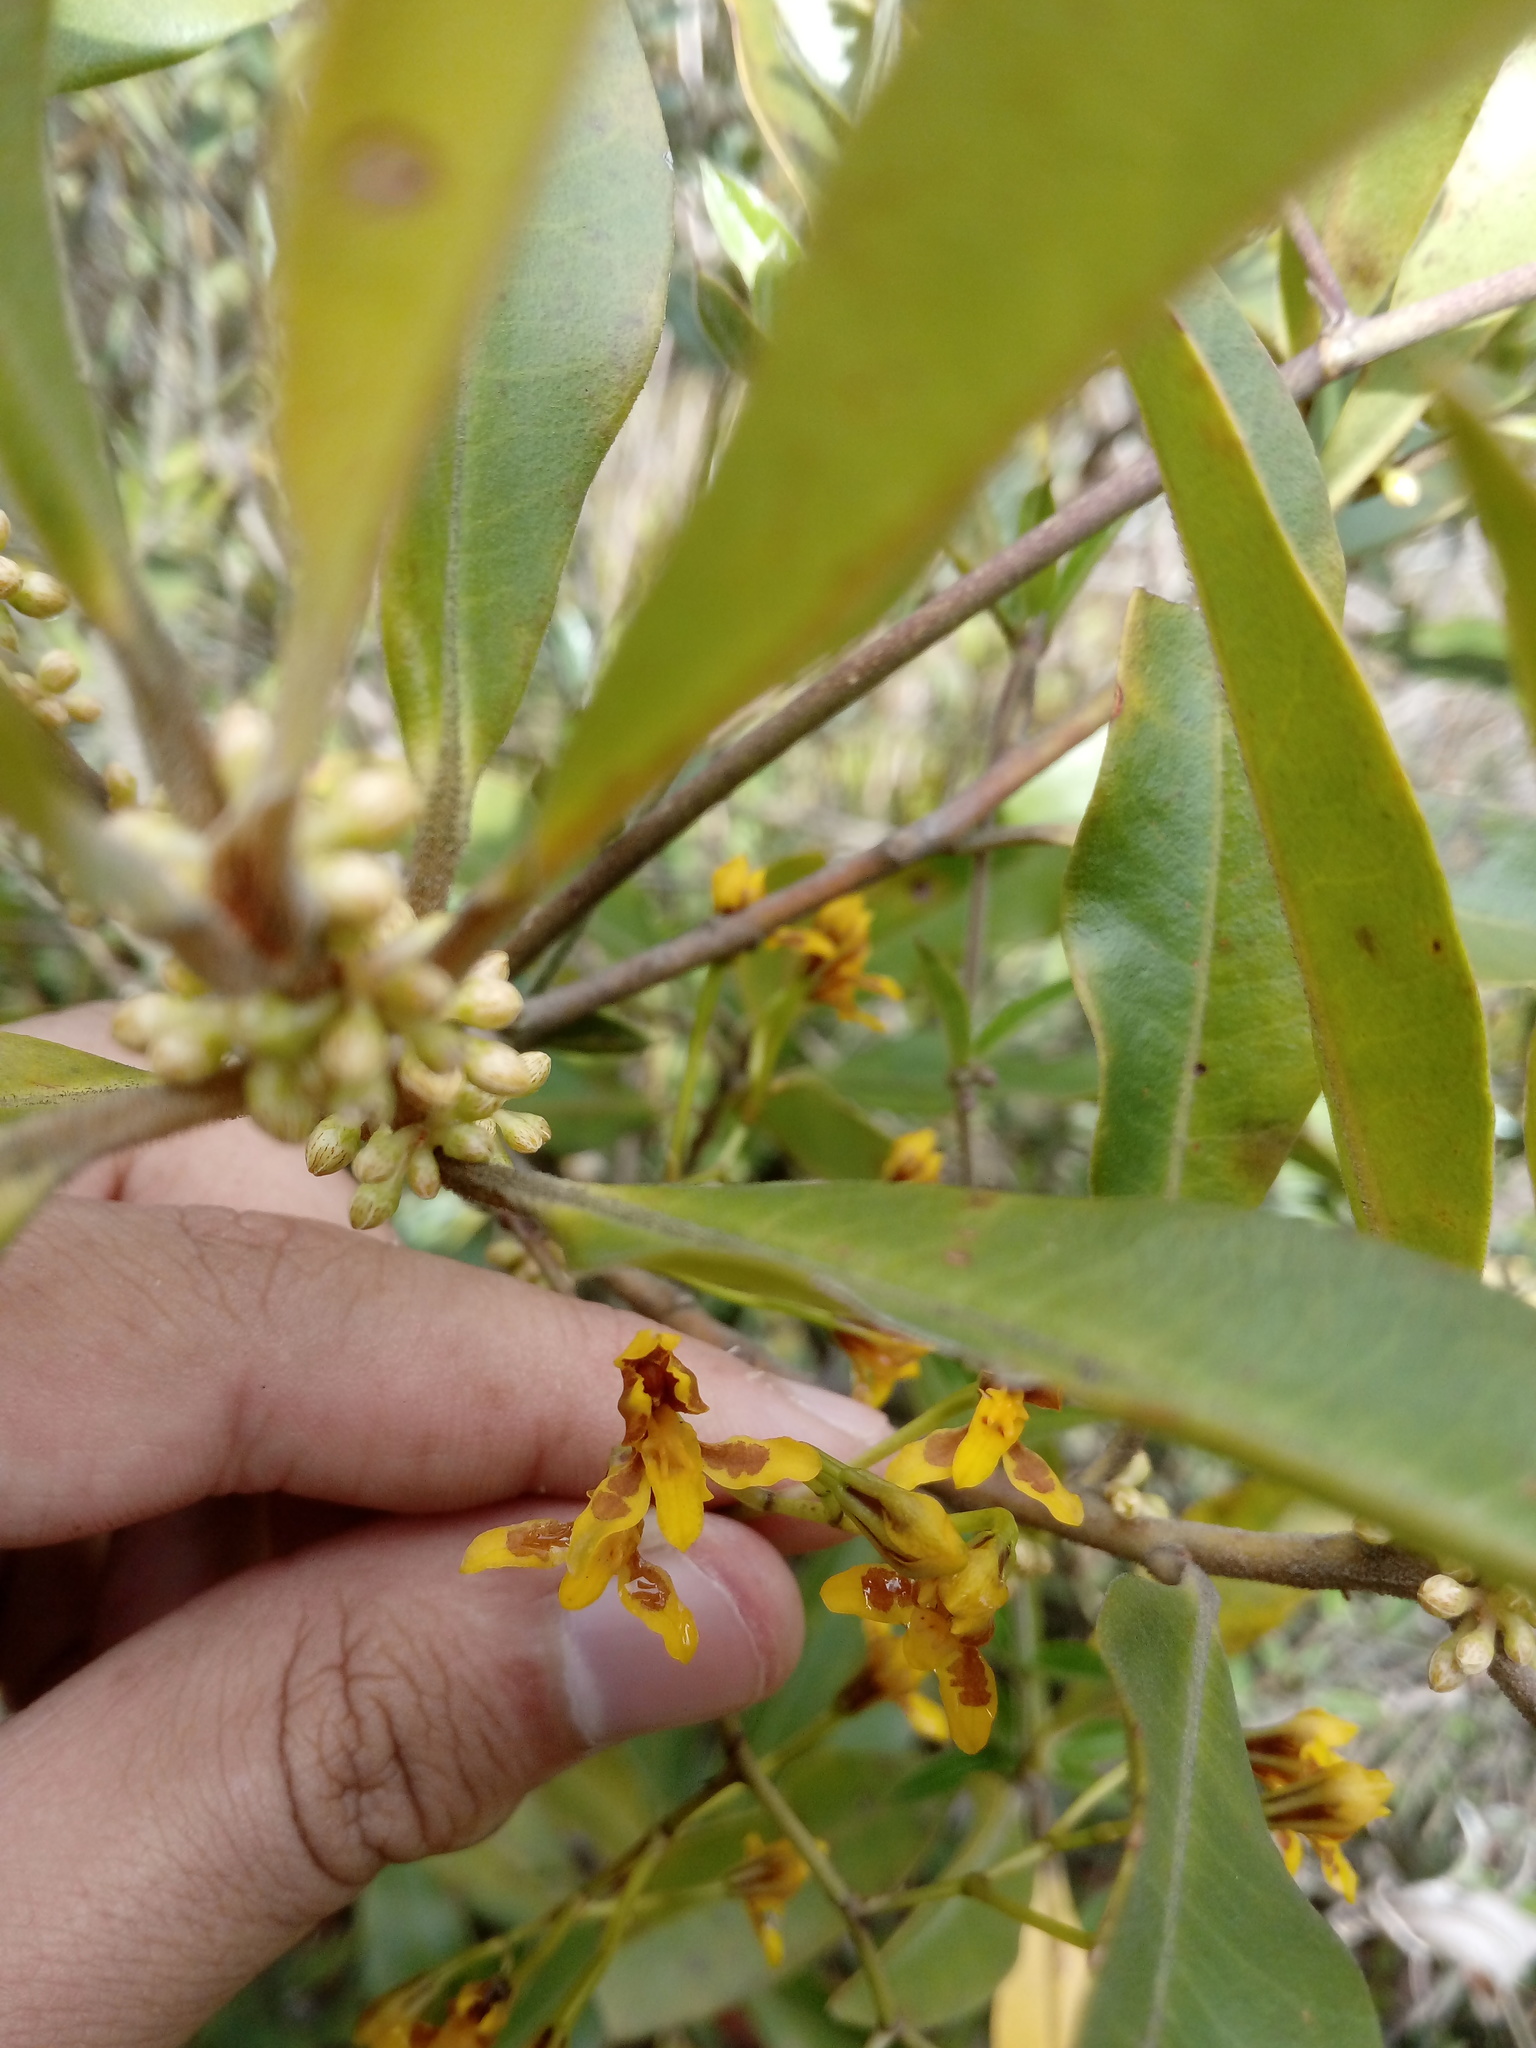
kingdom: Plantae
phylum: Tracheophyta
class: Liliopsida
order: Asparagales
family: Orchidaceae
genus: Cyrtochilum
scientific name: Cyrtochilum densiflorum
